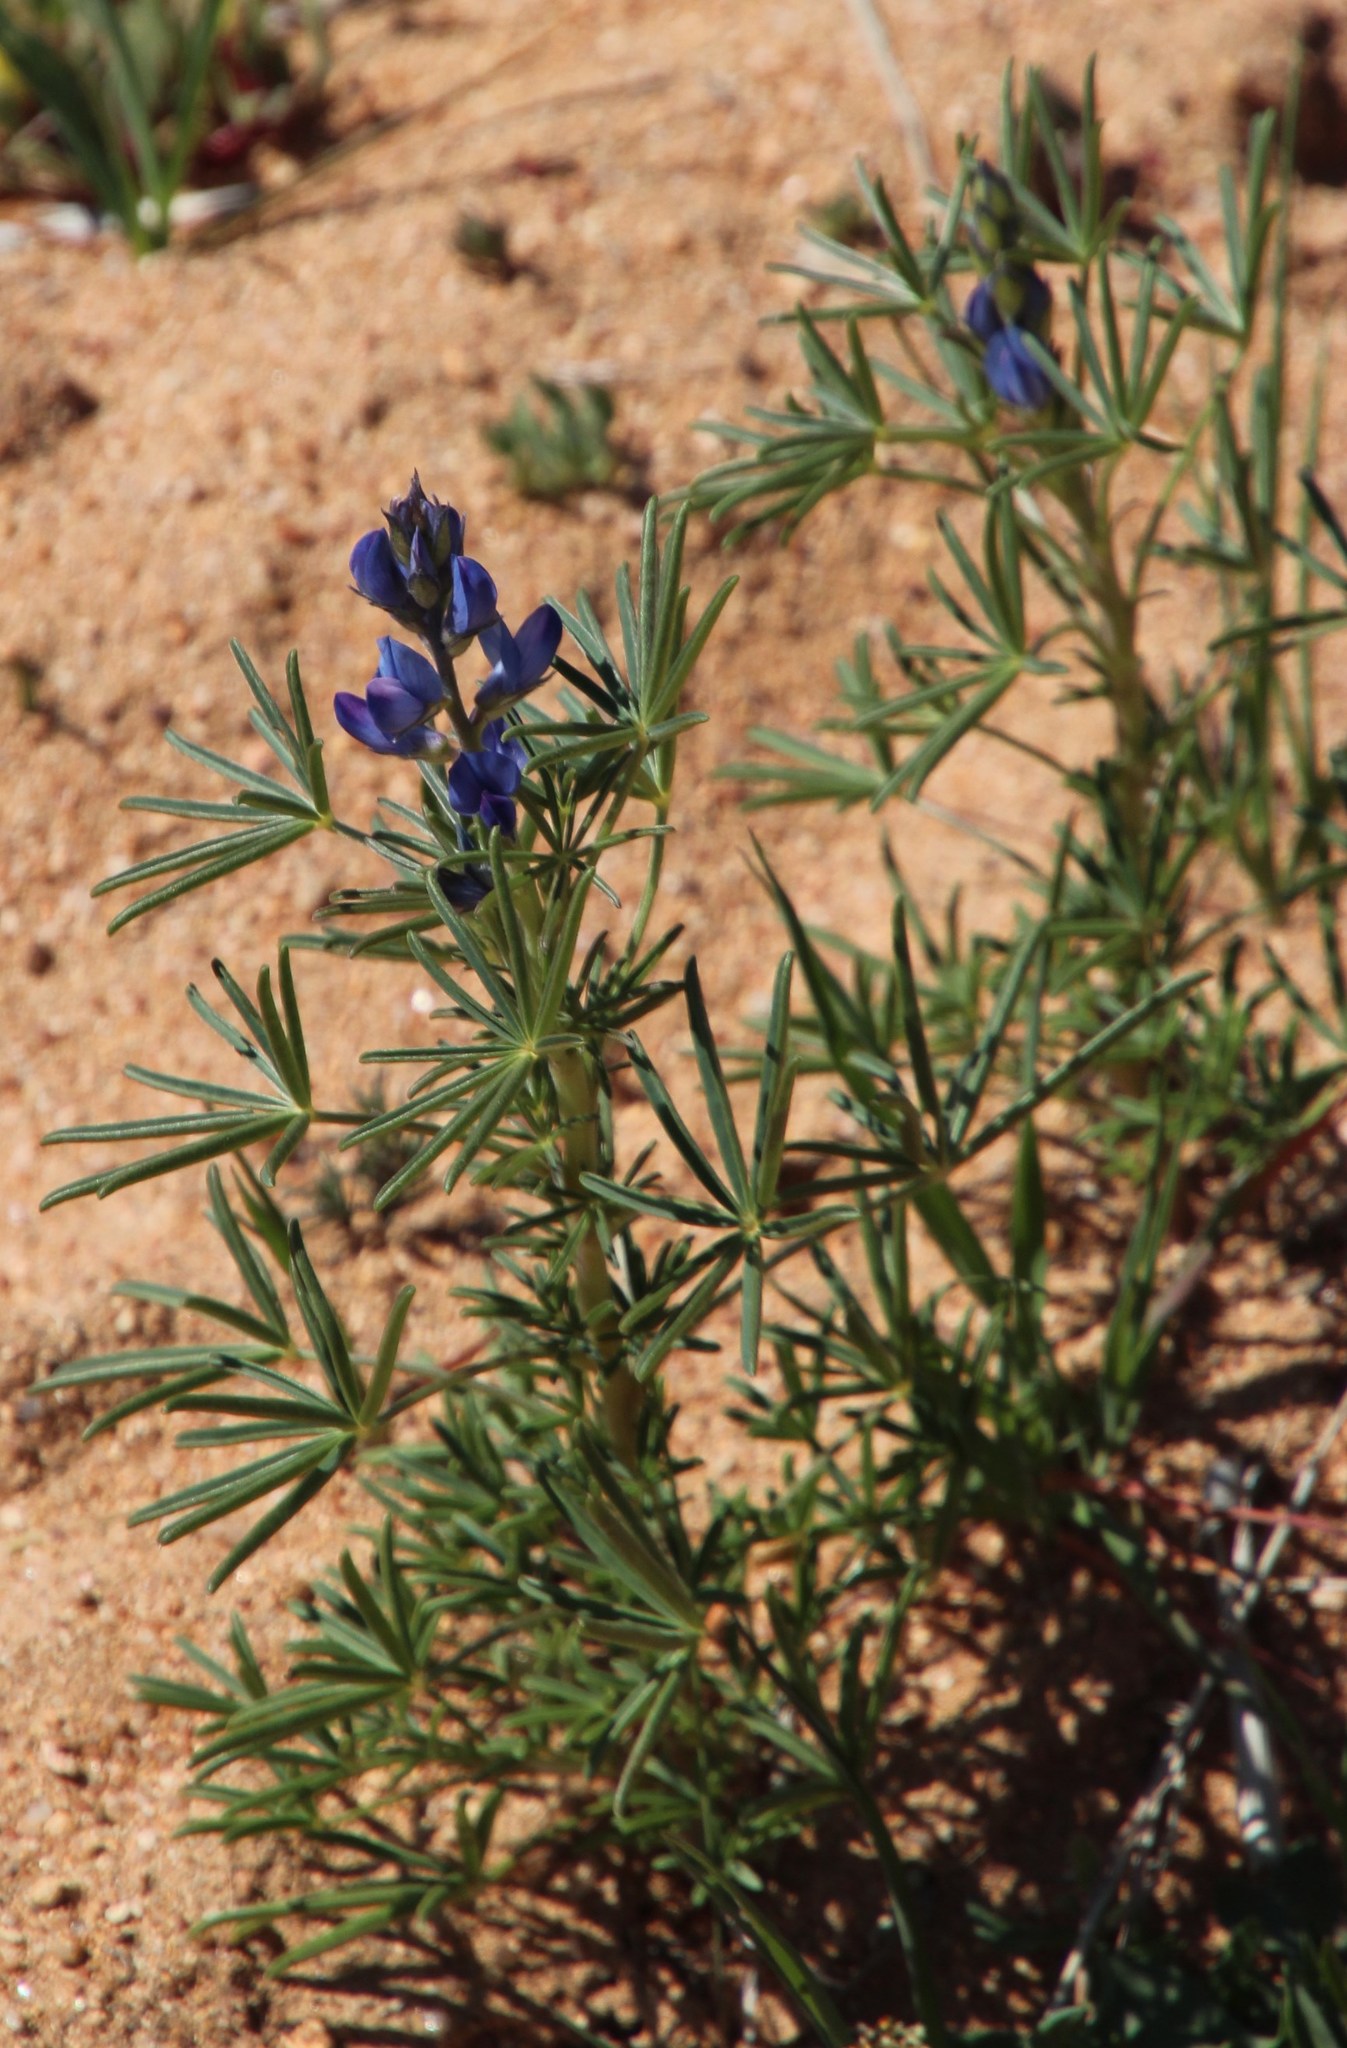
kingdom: Plantae
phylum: Tracheophyta
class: Magnoliopsida
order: Fabales
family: Fabaceae
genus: Lupinus
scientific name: Lupinus angustifolius
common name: Narrow-leaved lupin
